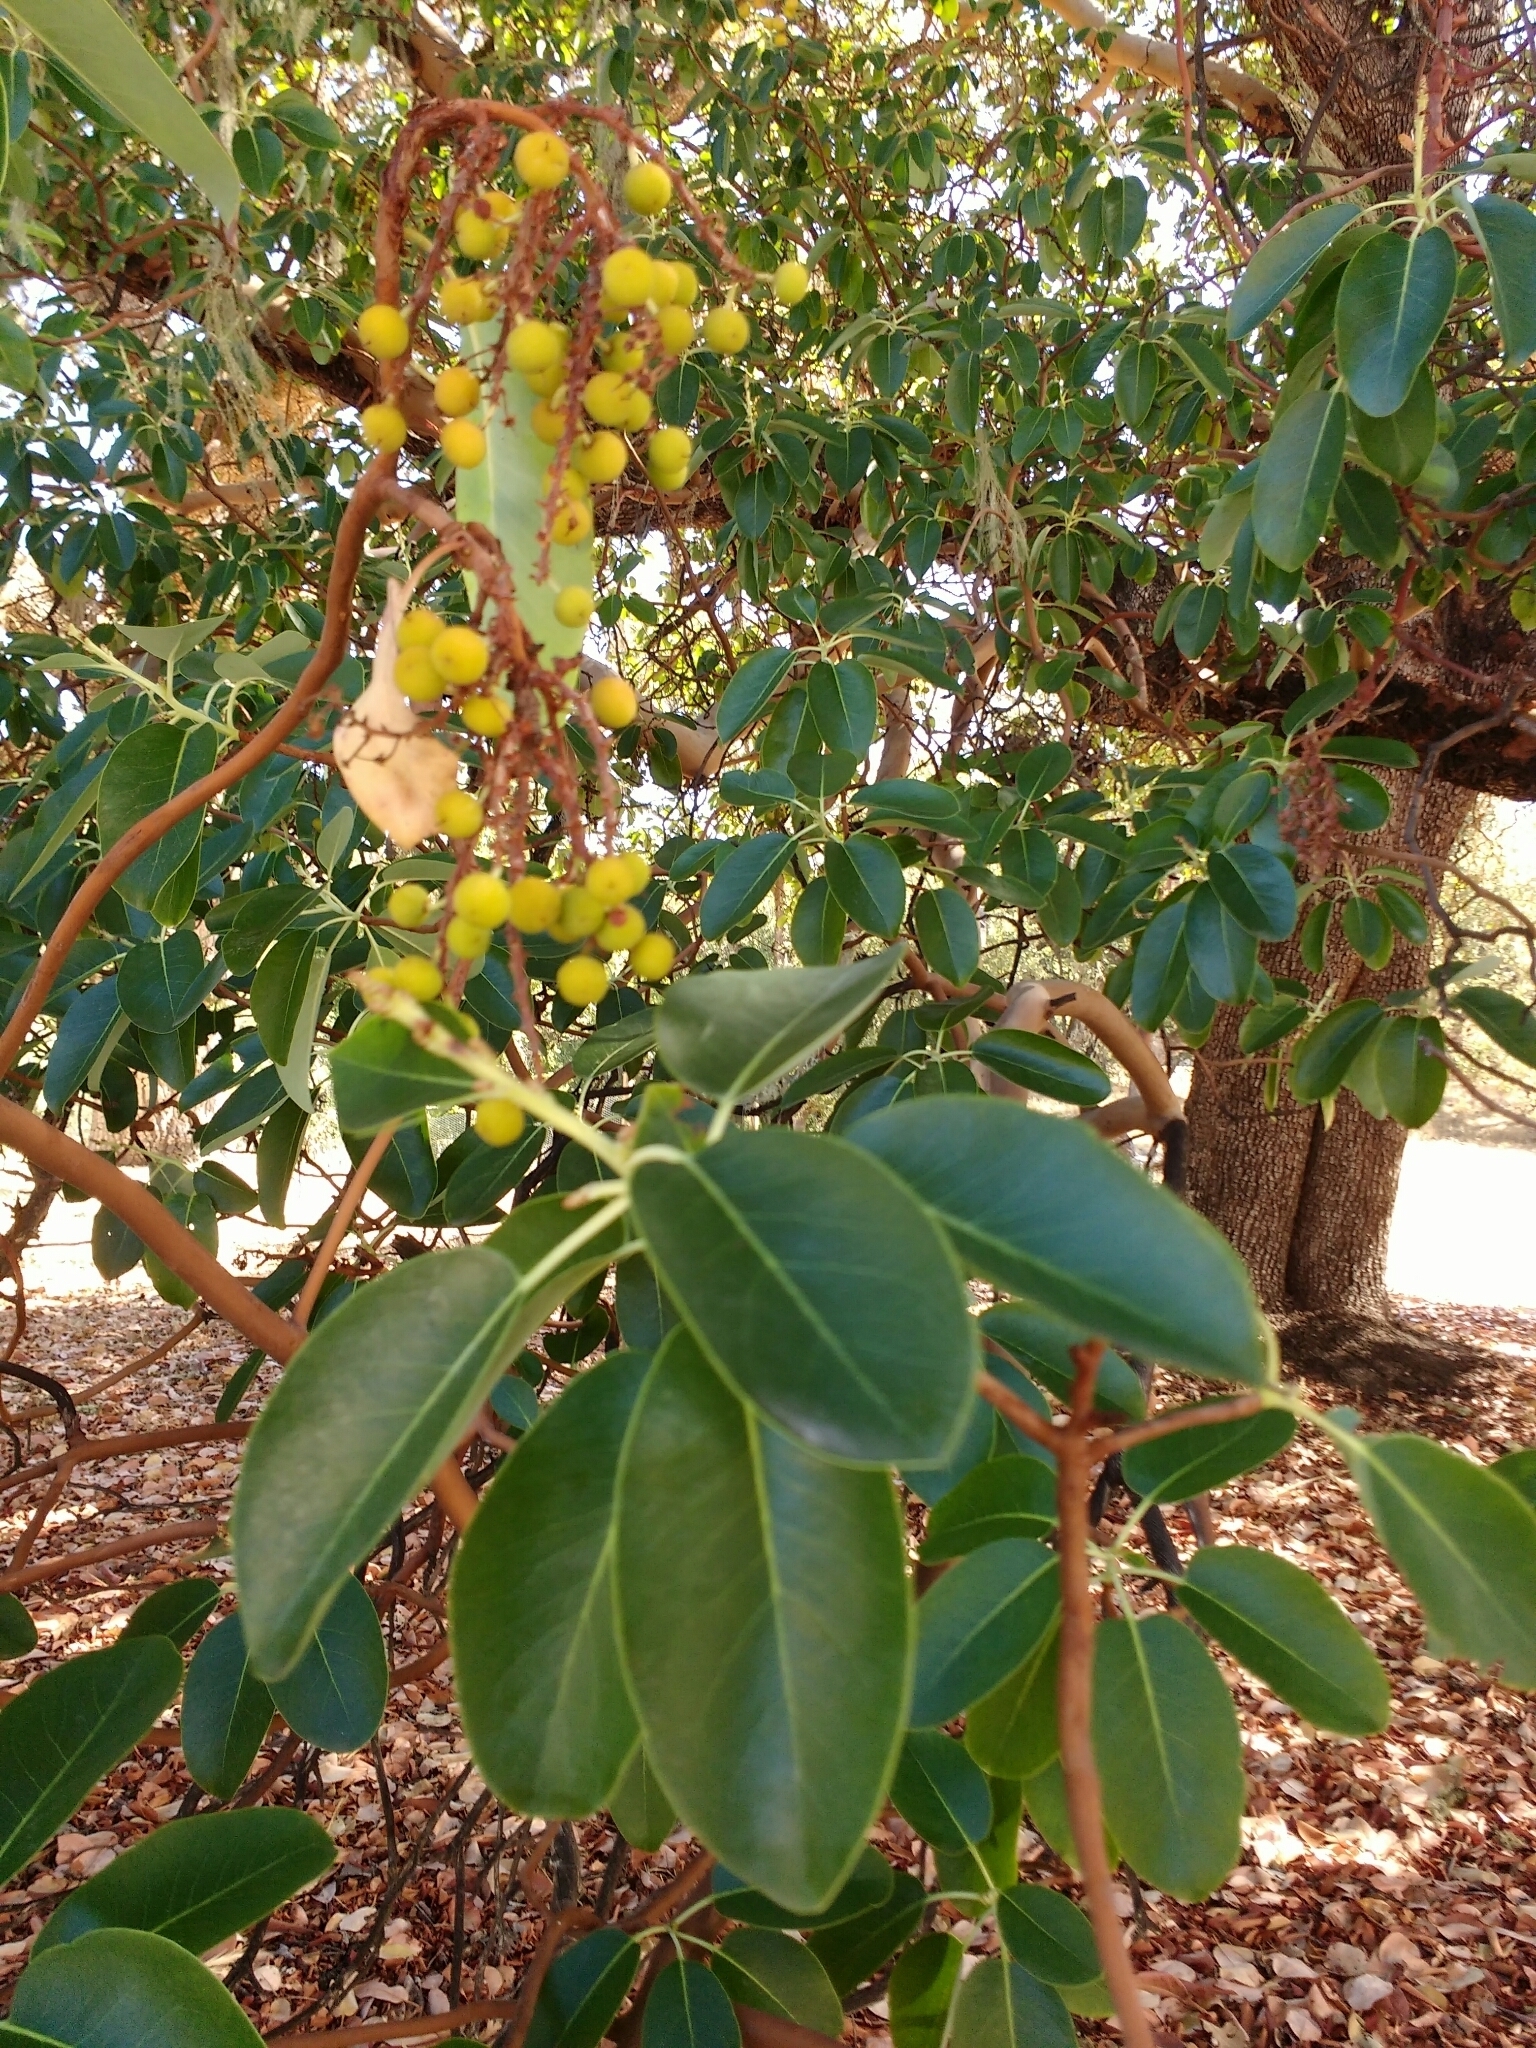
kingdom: Plantae
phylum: Tracheophyta
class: Magnoliopsida
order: Ericales
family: Ericaceae
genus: Arbutus
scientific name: Arbutus menziesii
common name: Pacific madrone
